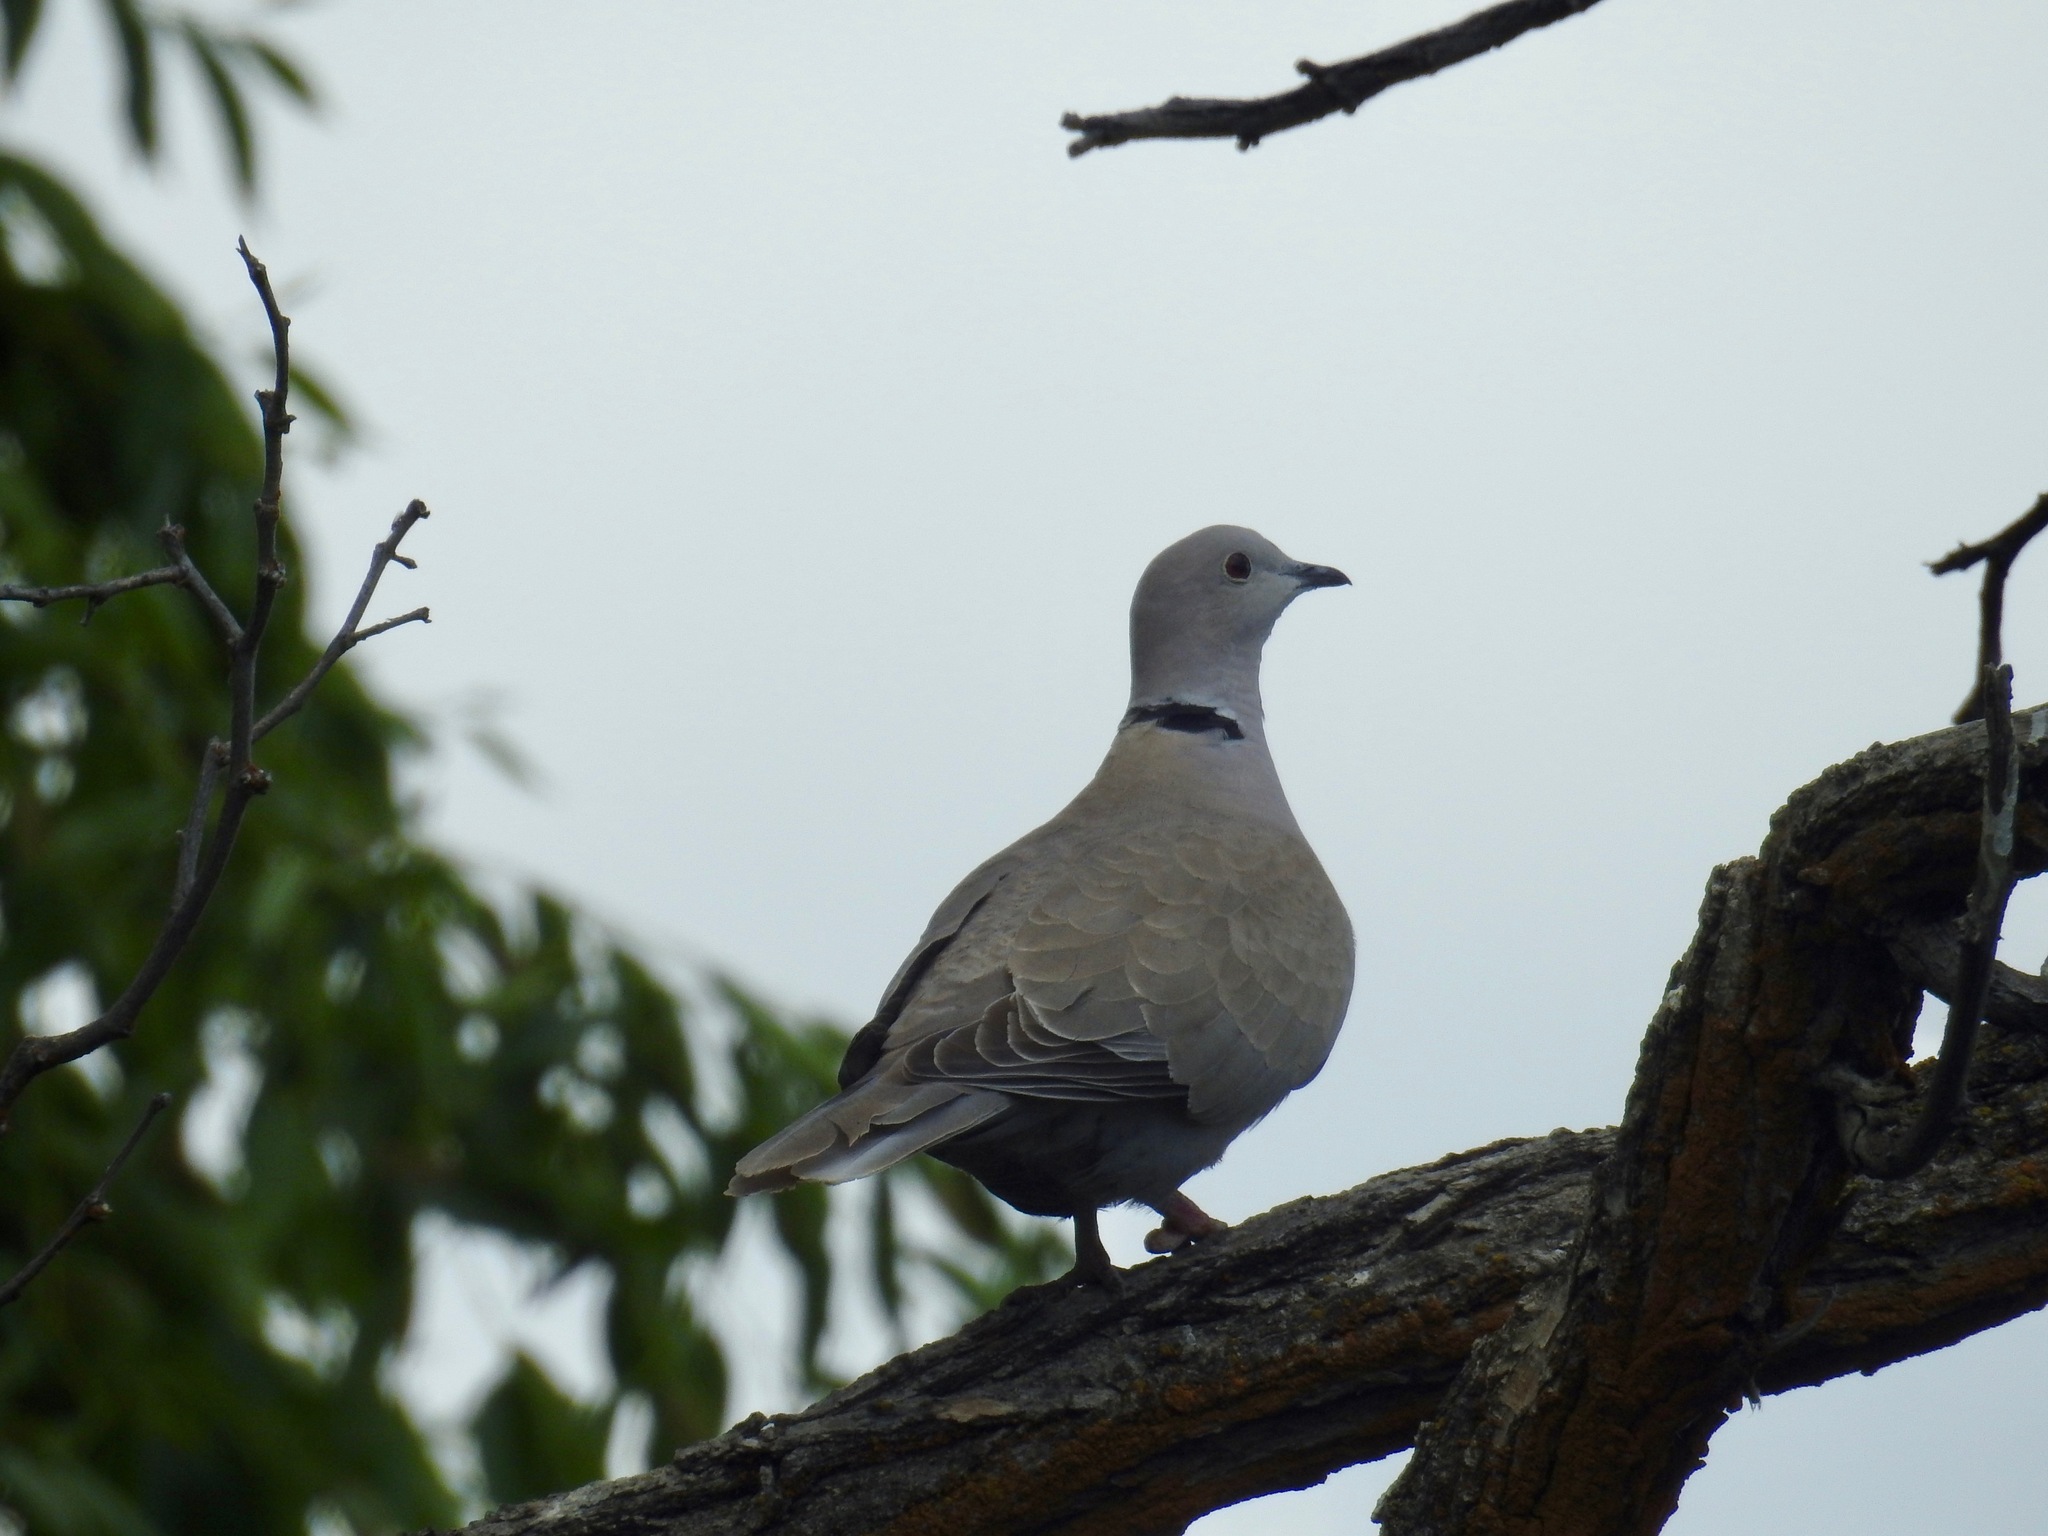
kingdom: Animalia
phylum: Chordata
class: Aves
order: Columbiformes
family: Columbidae
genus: Streptopelia
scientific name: Streptopelia decaocto
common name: Eurasian collared dove
